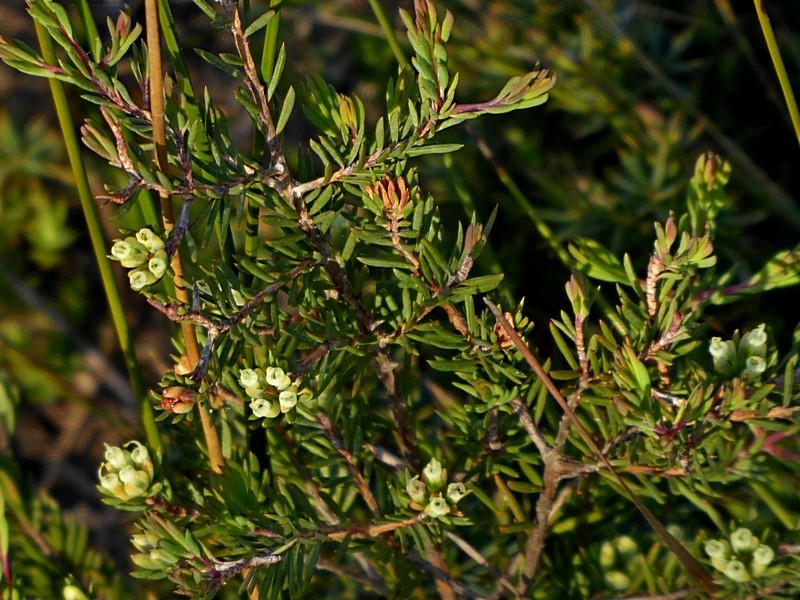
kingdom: Plantae
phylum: Tracheophyta
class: Magnoliopsida
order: Myrtales
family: Myrtaceae
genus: Darwinia
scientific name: Darwinia camptostylis
